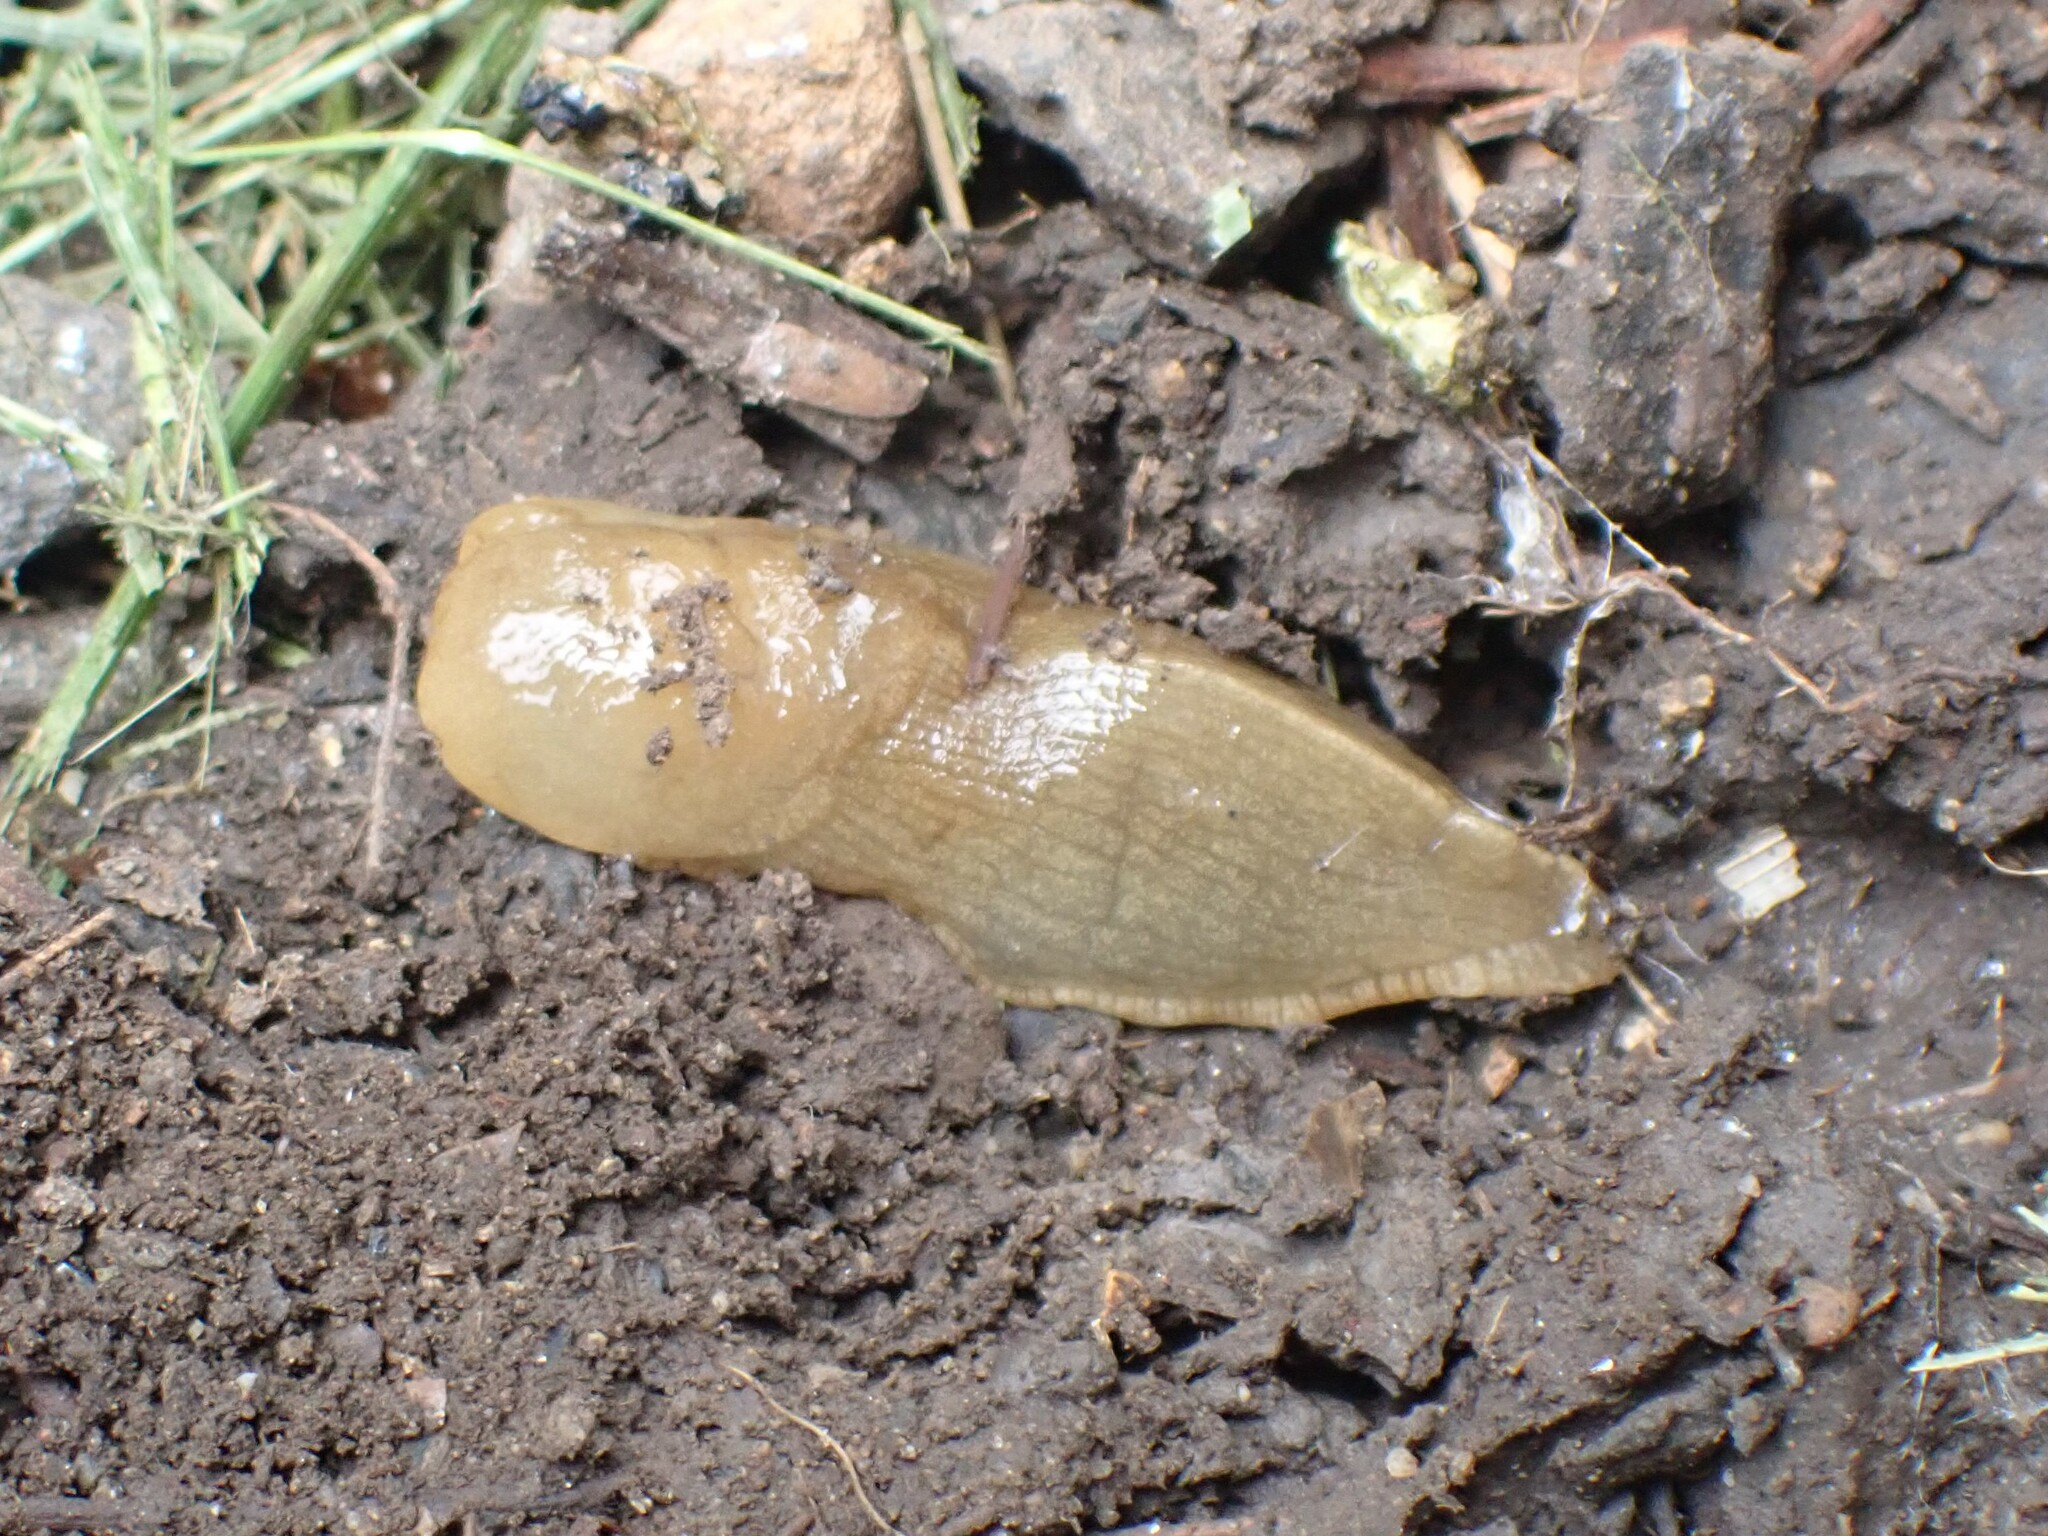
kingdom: Animalia
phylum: Mollusca
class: Gastropoda
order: Stylommatophora
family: Ariolimacidae
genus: Ariolimax
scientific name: Ariolimax columbianus
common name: Pacific banana slug
